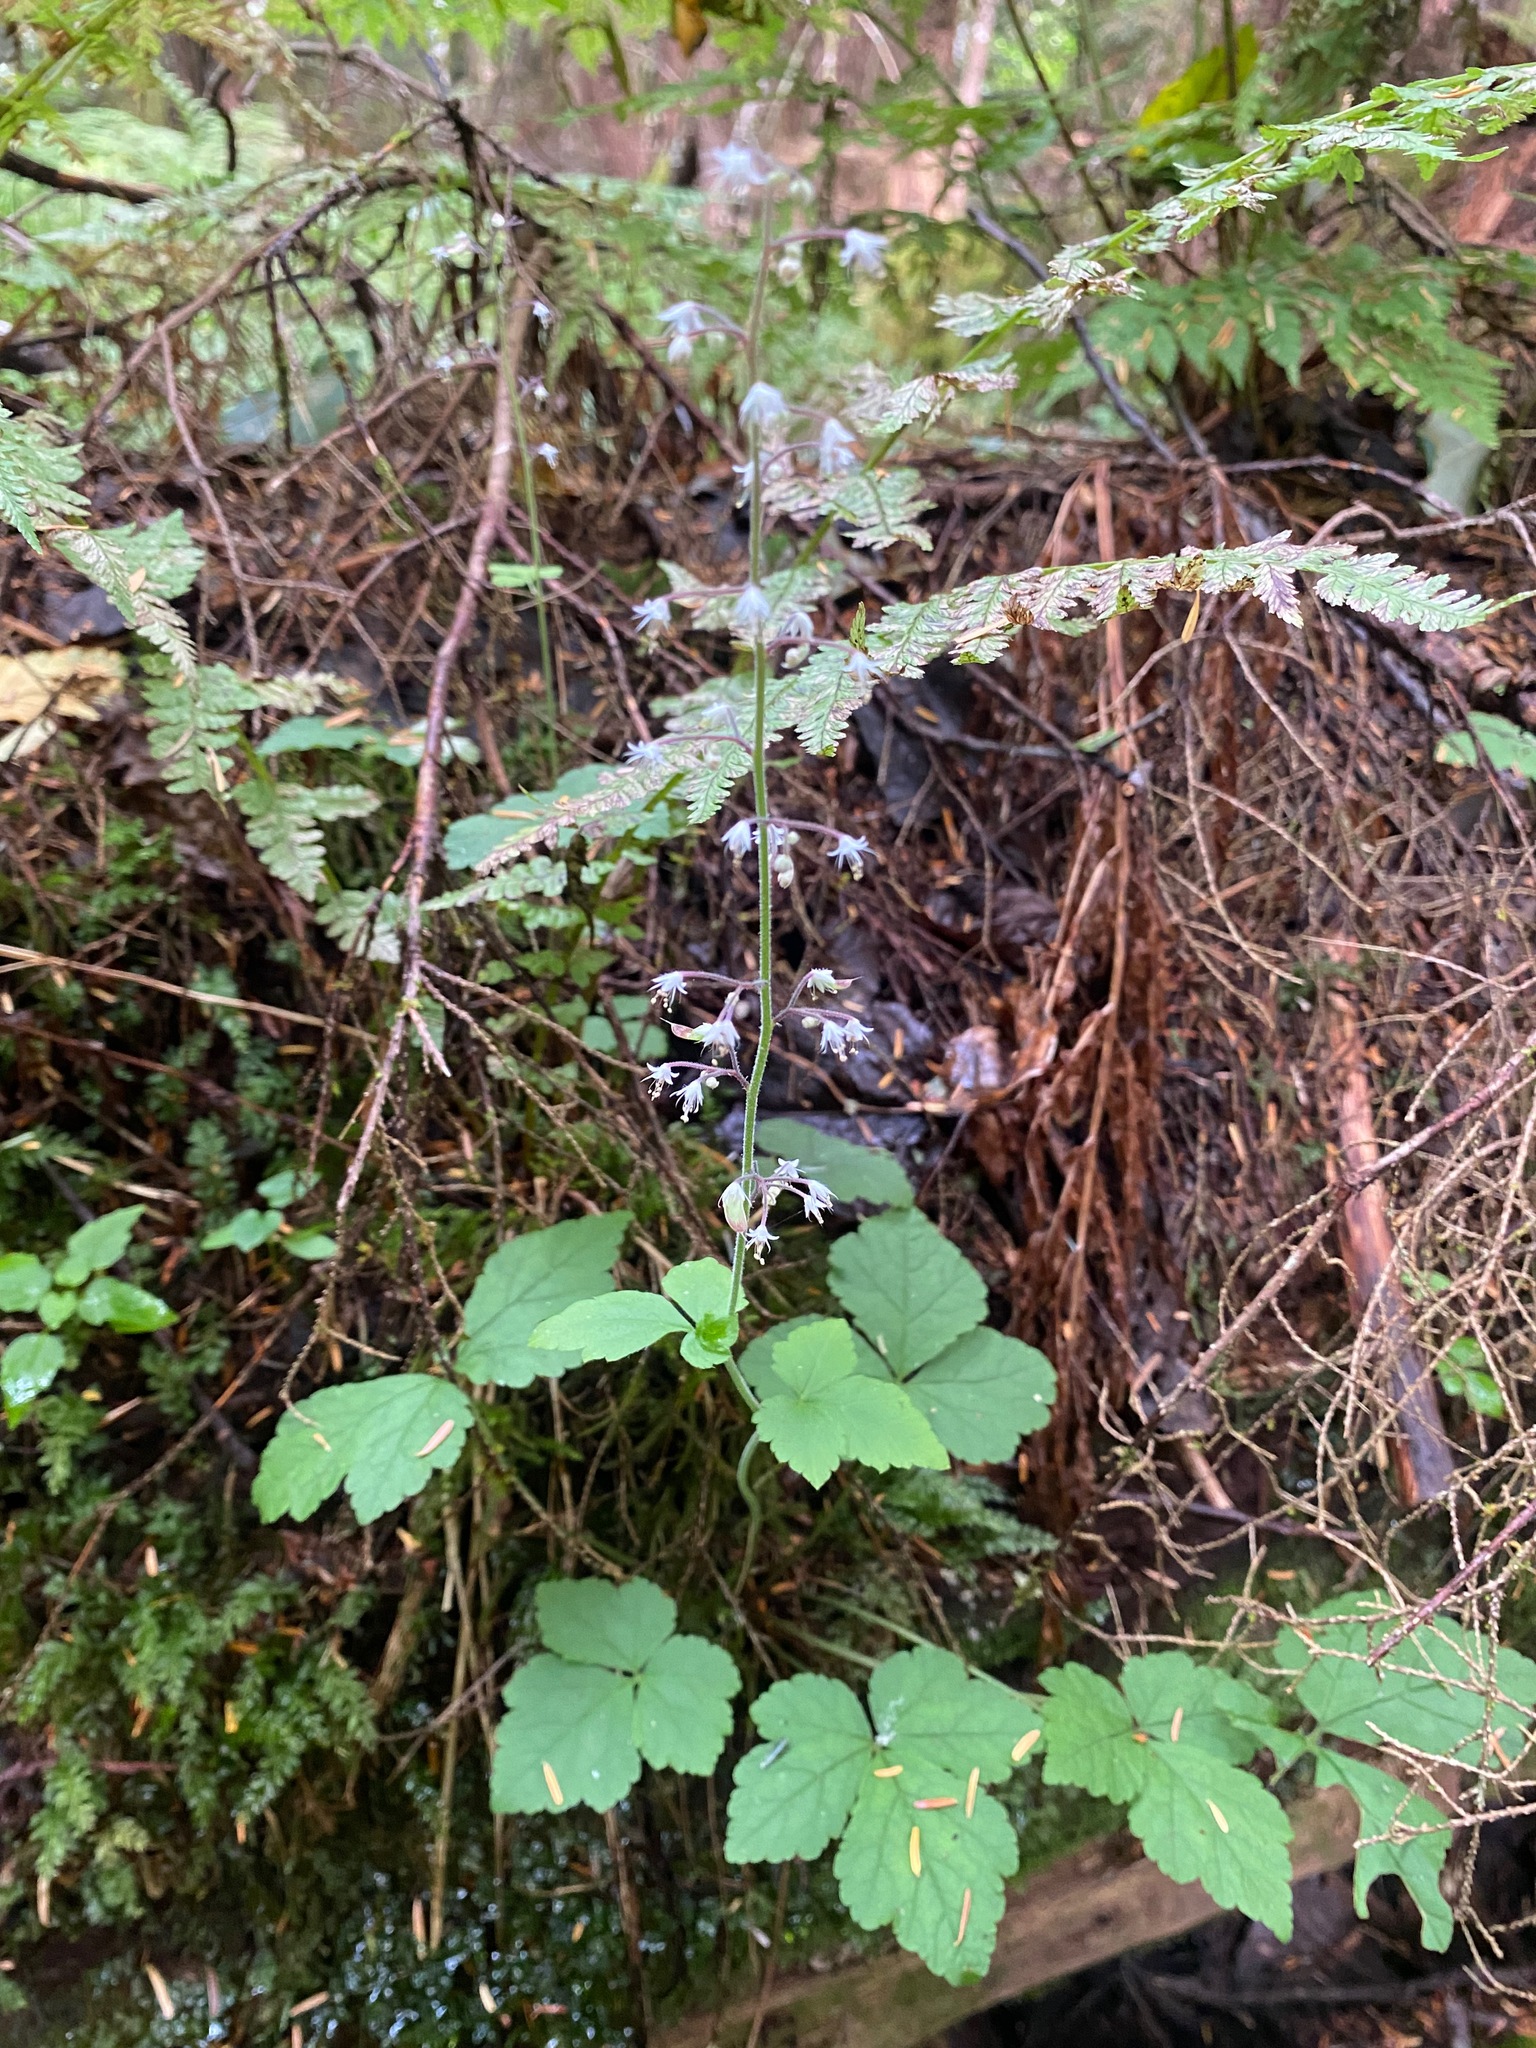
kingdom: Plantae
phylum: Tracheophyta
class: Magnoliopsida
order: Saxifragales
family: Saxifragaceae
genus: Tiarella
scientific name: Tiarella trifoliata
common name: Sugar-scoop
